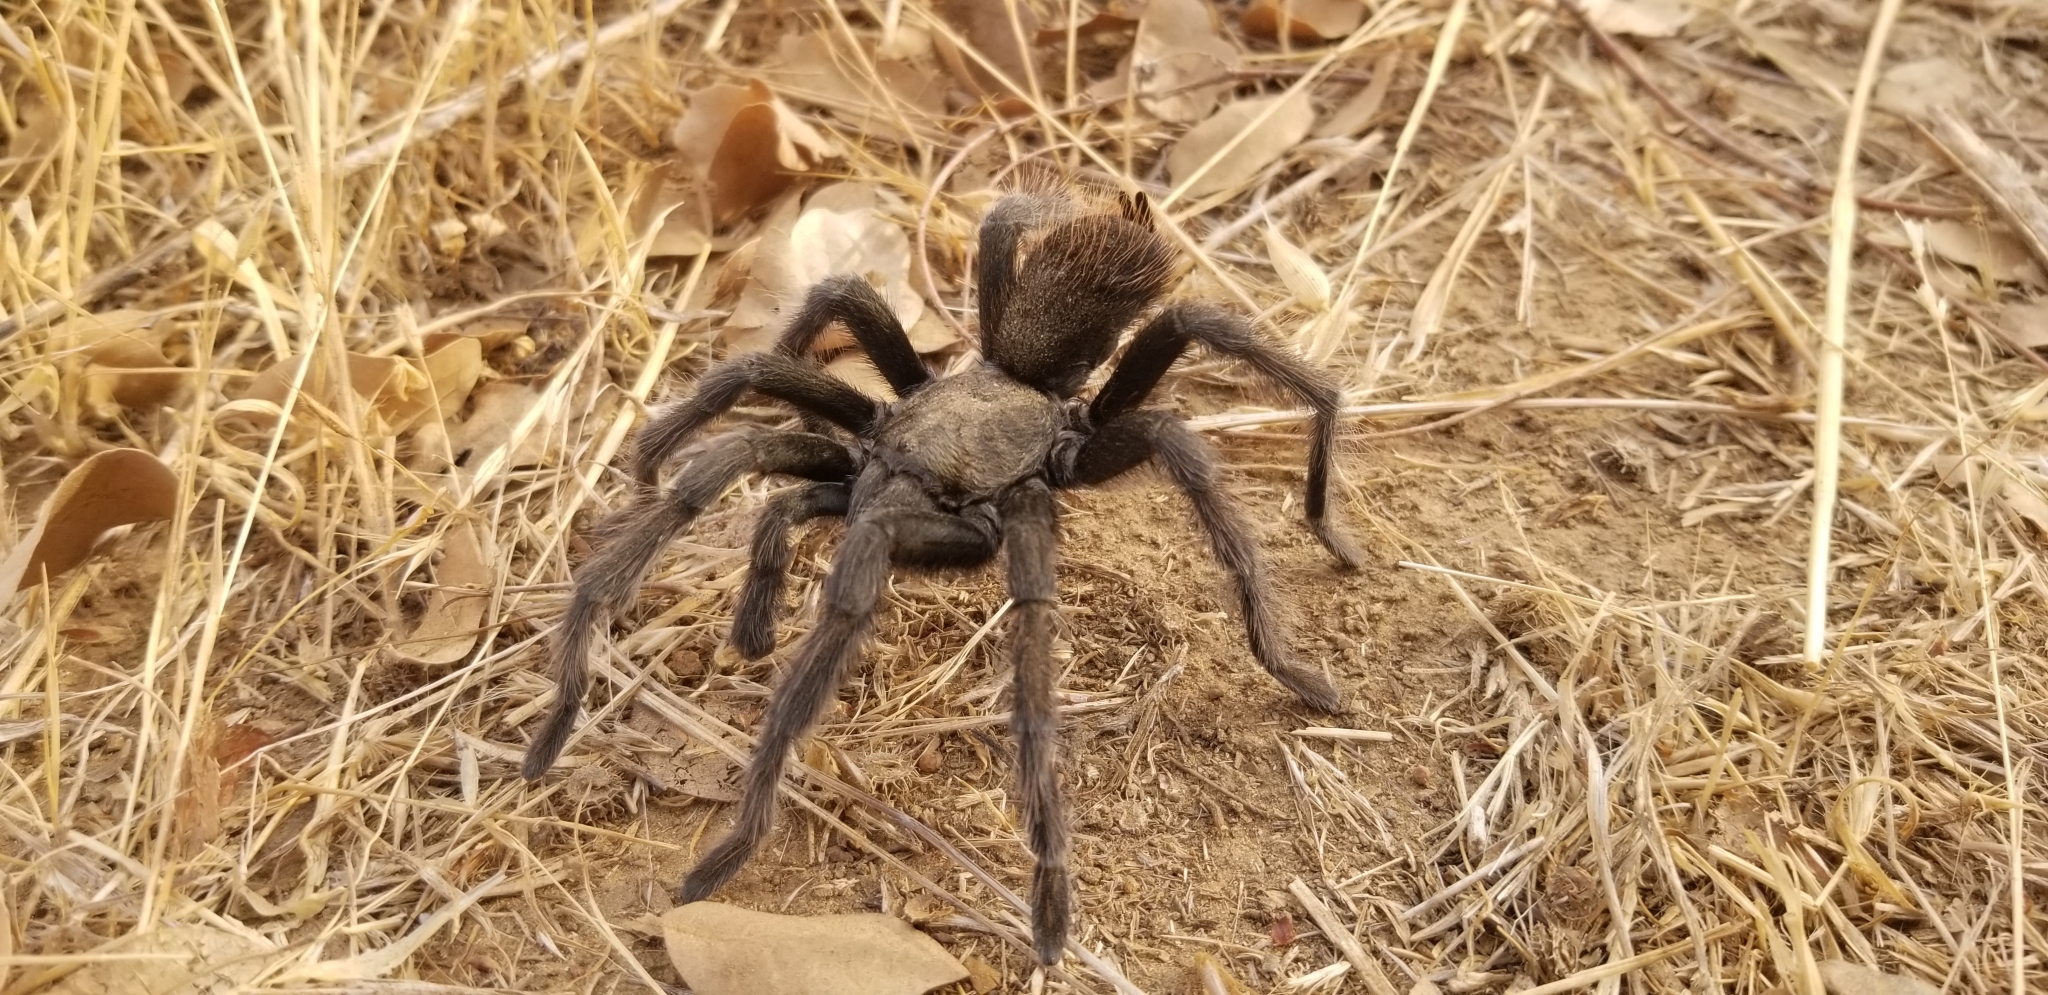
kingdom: Animalia
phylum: Arthropoda
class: Arachnida
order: Araneae
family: Theraphosidae
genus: Aphonopelma
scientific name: Aphonopelma johnnycashi
